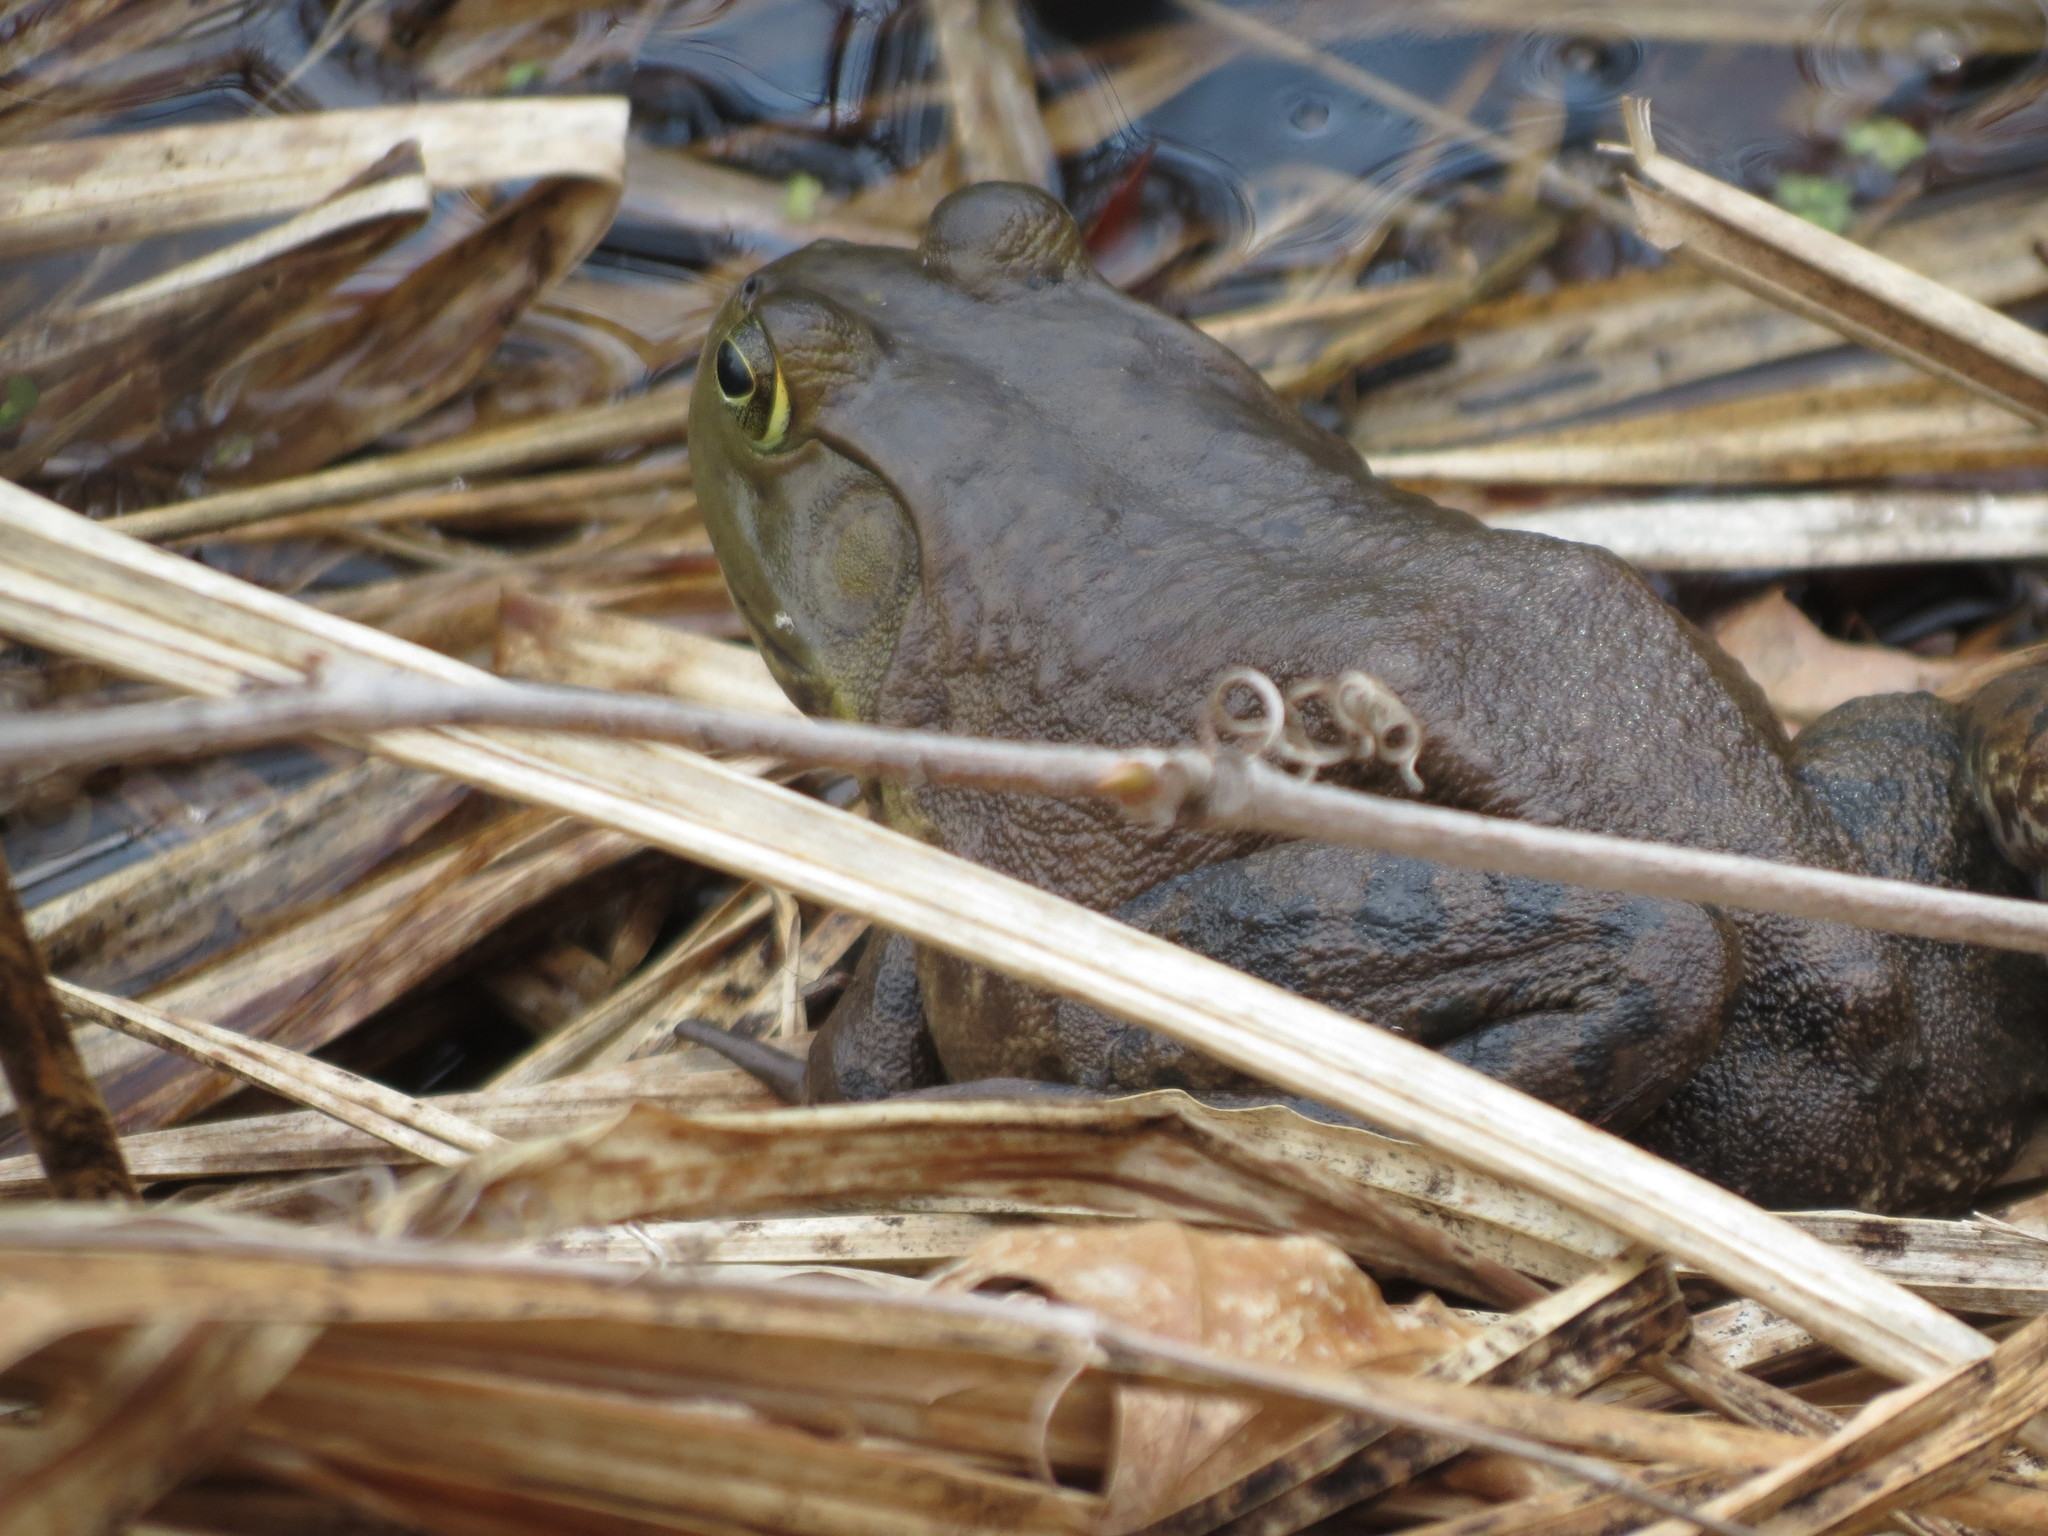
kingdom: Animalia
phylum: Chordata
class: Amphibia
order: Anura
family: Ranidae
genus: Lithobates
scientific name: Lithobates catesbeianus
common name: American bullfrog
